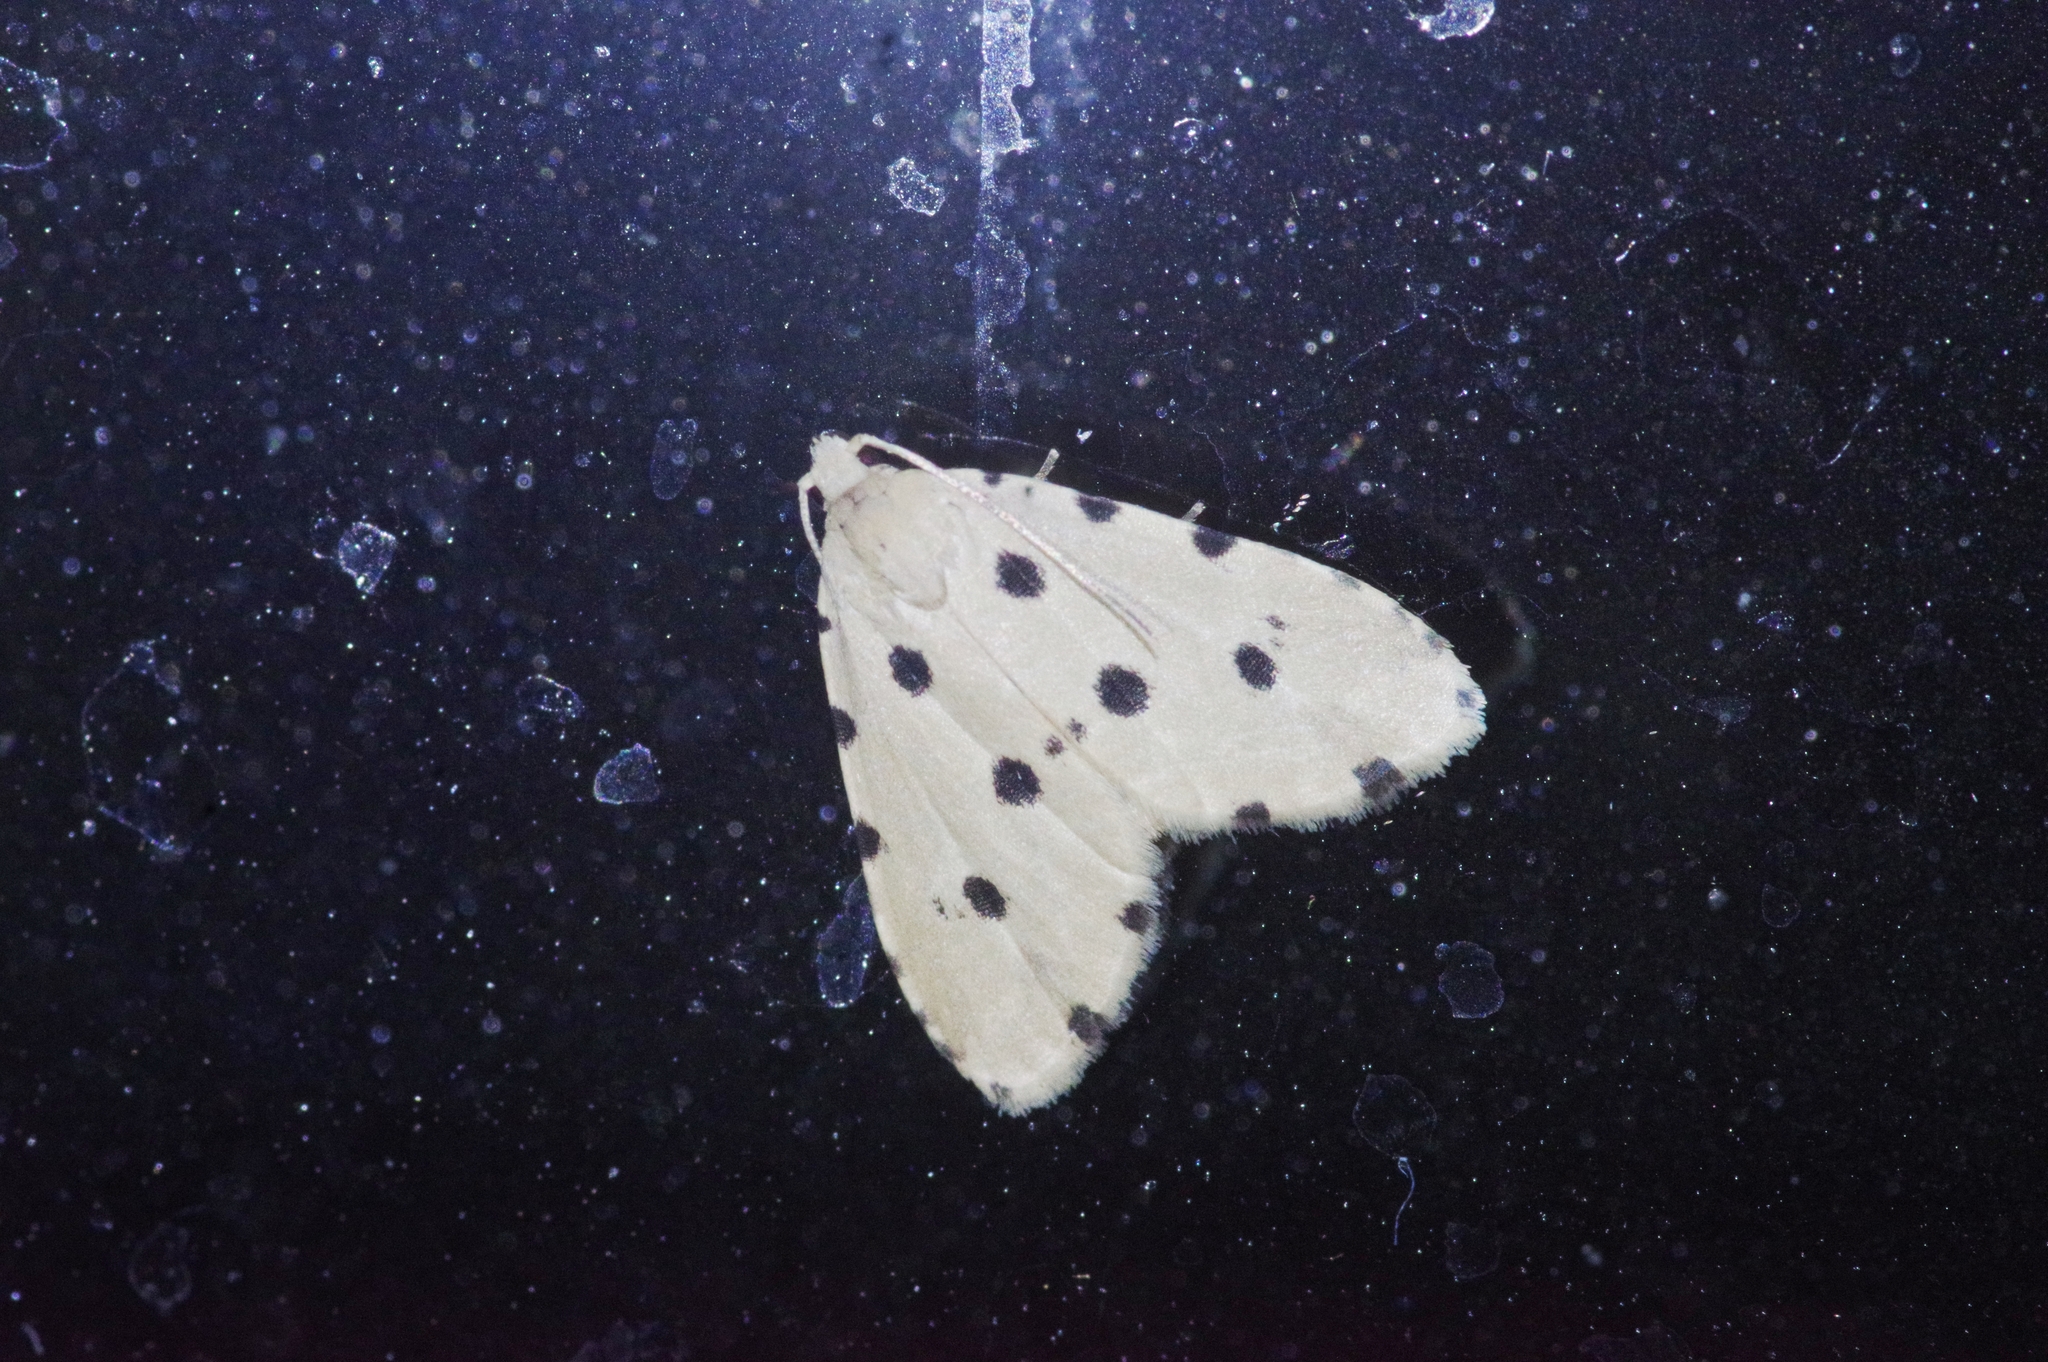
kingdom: Animalia
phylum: Arthropoda
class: Insecta
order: Lepidoptera
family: Noctuidae
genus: Metaemene
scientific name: Metaemene atrigutta
